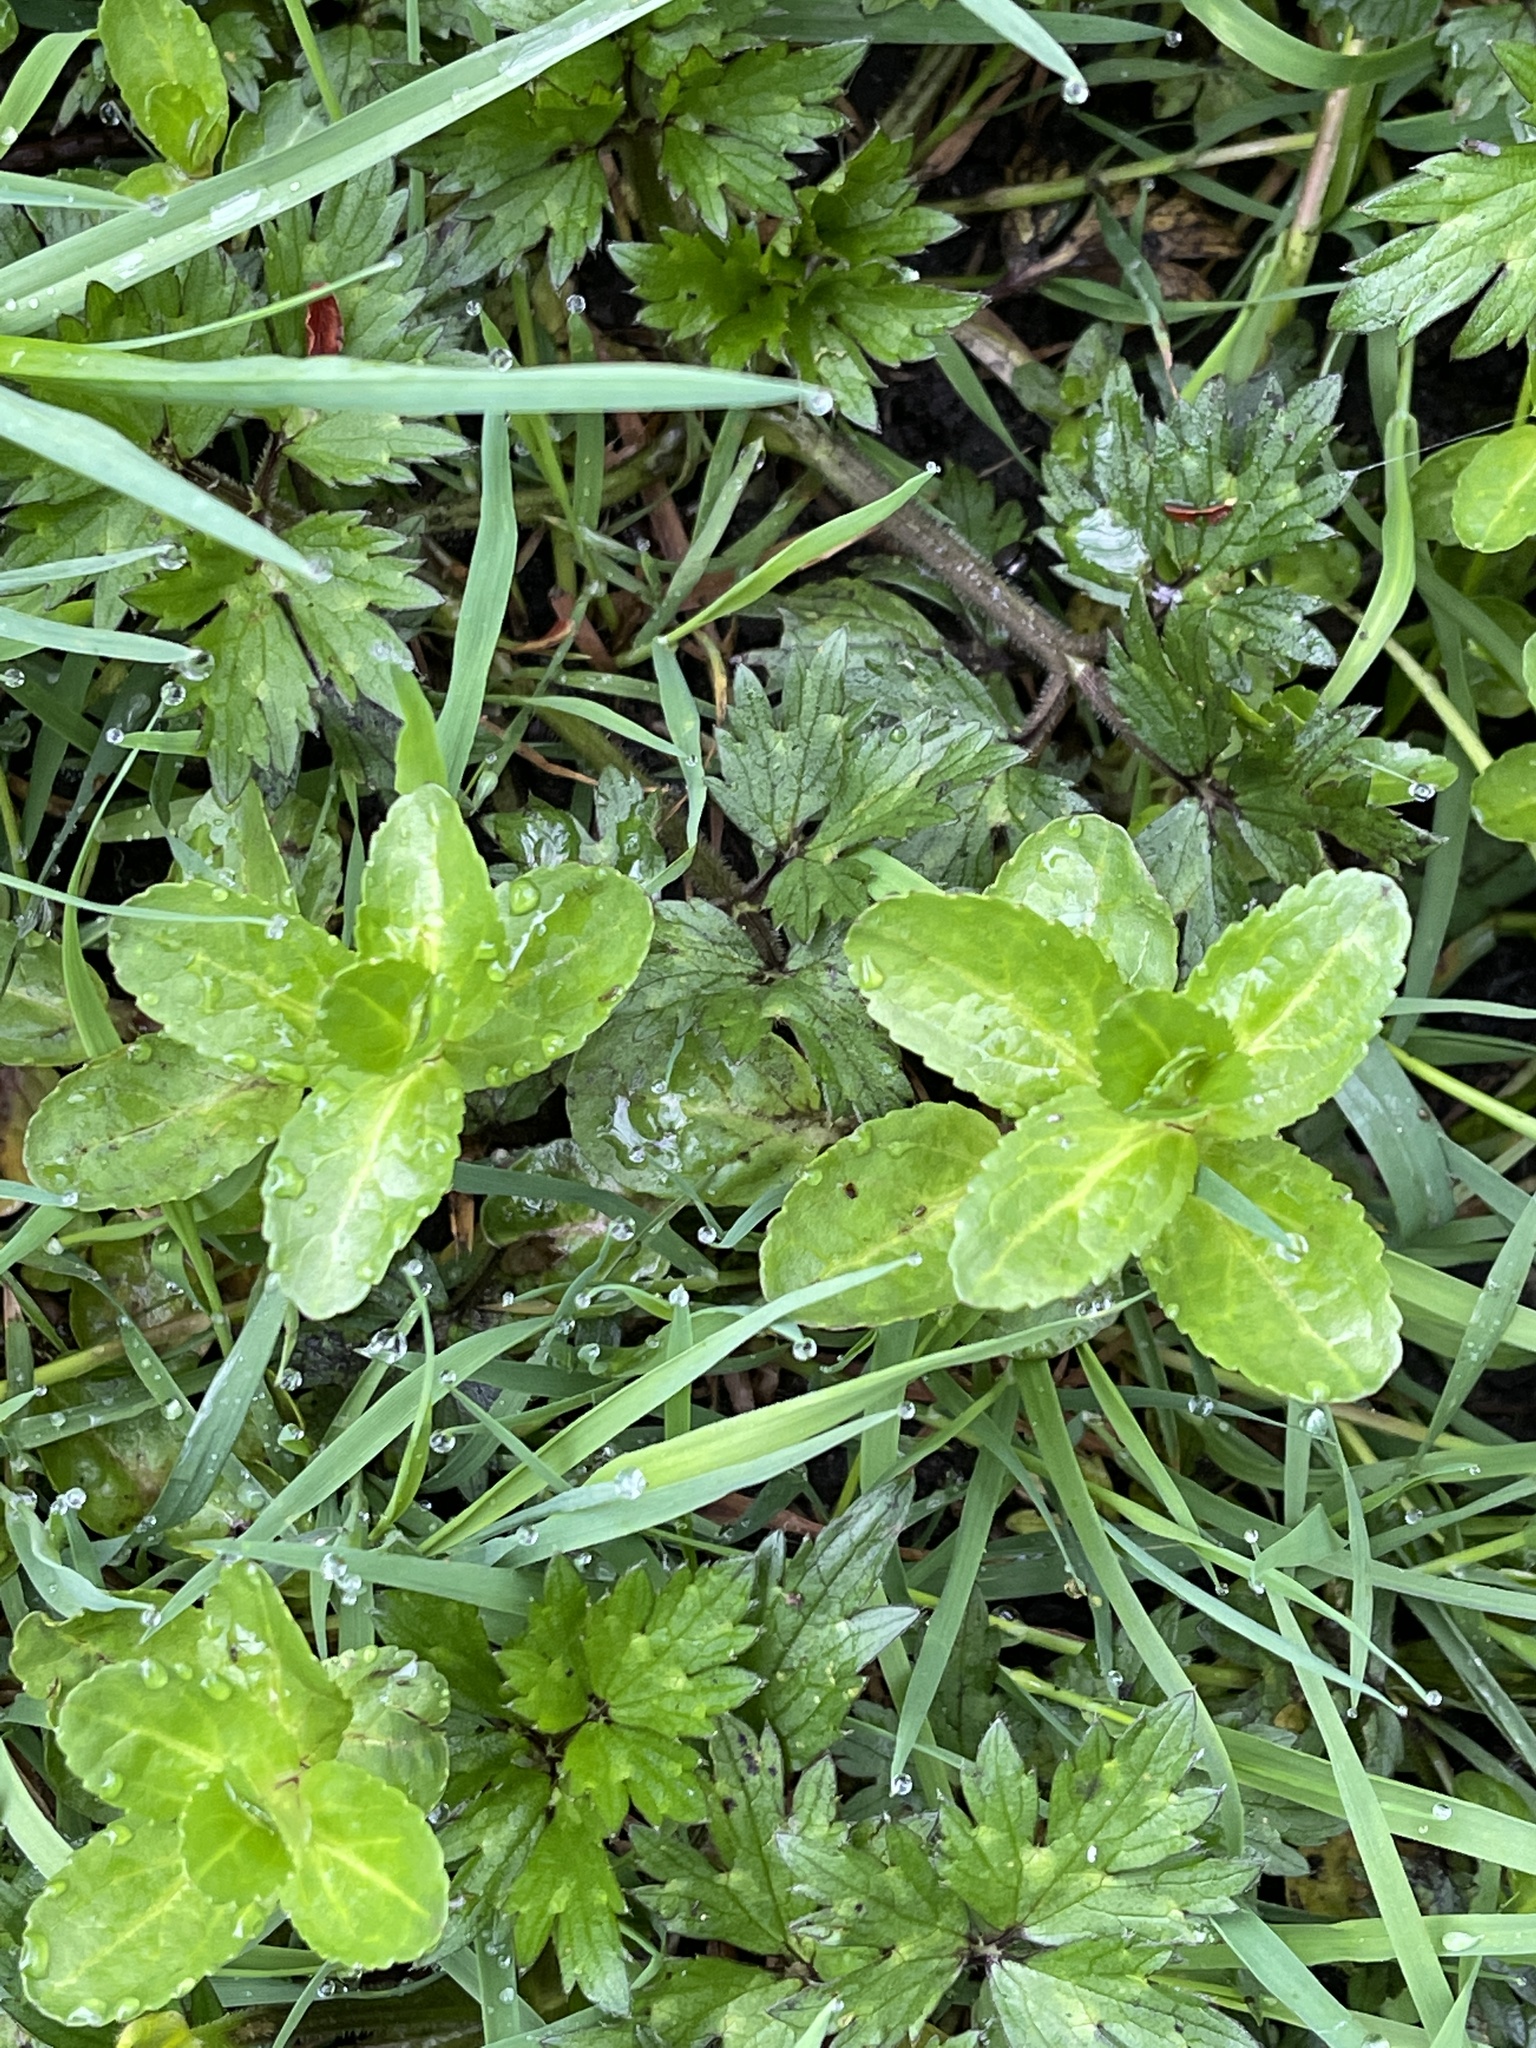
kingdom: Plantae
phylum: Tracheophyta
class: Magnoliopsida
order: Lamiales
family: Plantaginaceae
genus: Veronica
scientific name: Veronica beccabunga
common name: Brooklime
